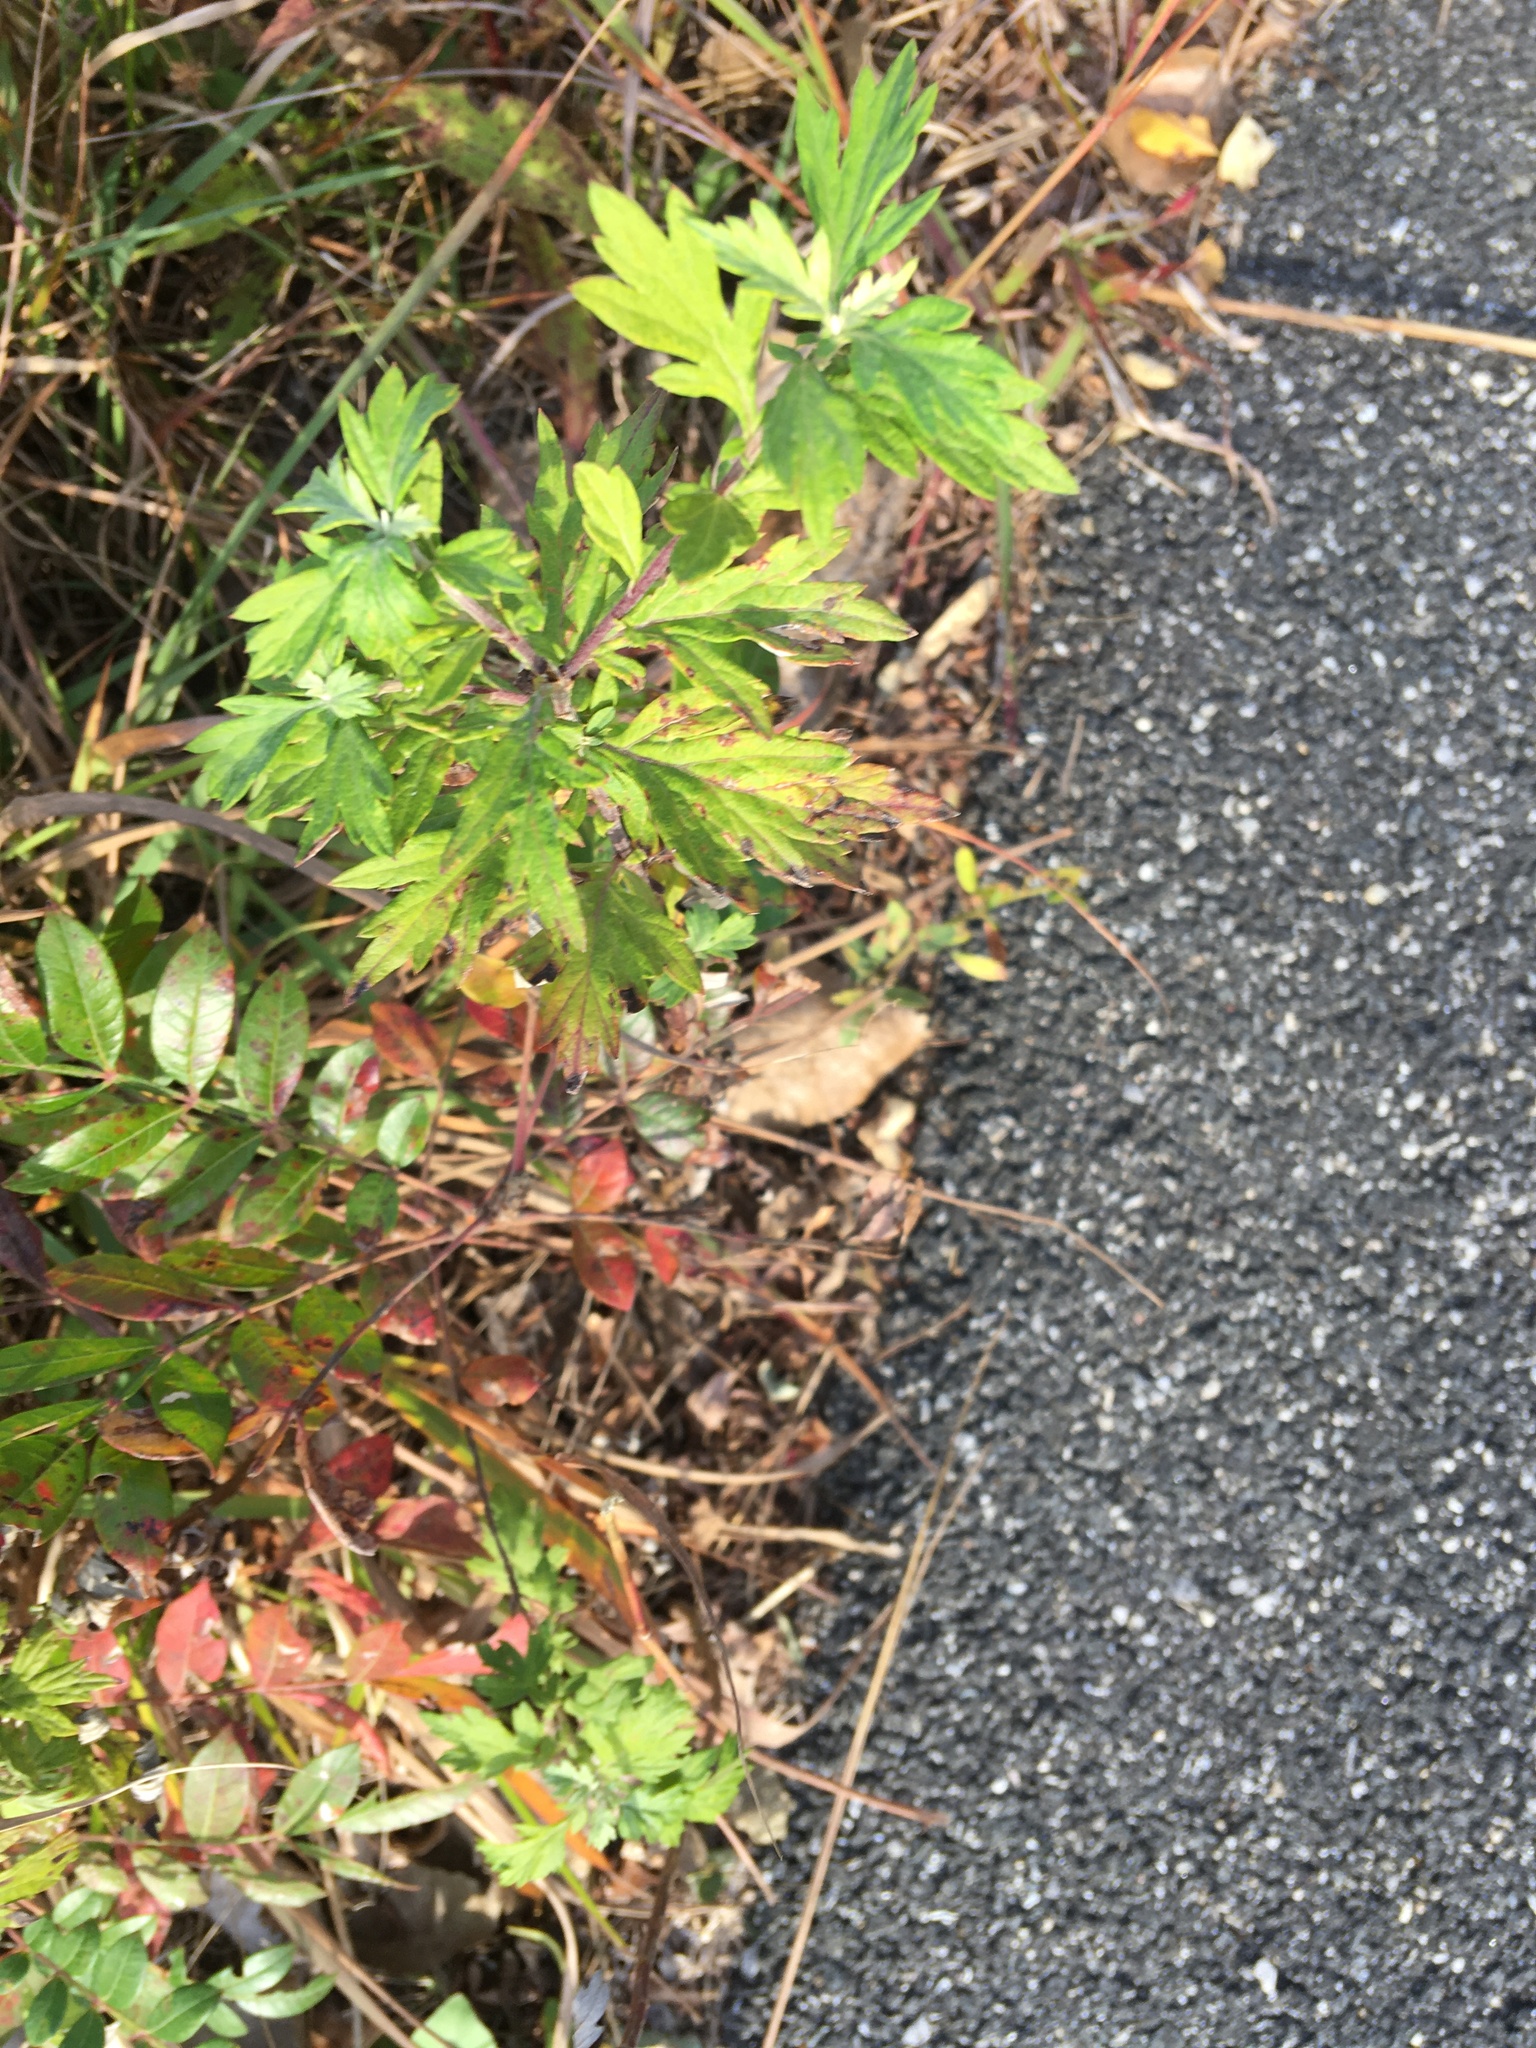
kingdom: Plantae
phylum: Tracheophyta
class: Magnoliopsida
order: Asterales
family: Asteraceae
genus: Artemisia
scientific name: Artemisia vulgaris
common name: Mugwort
